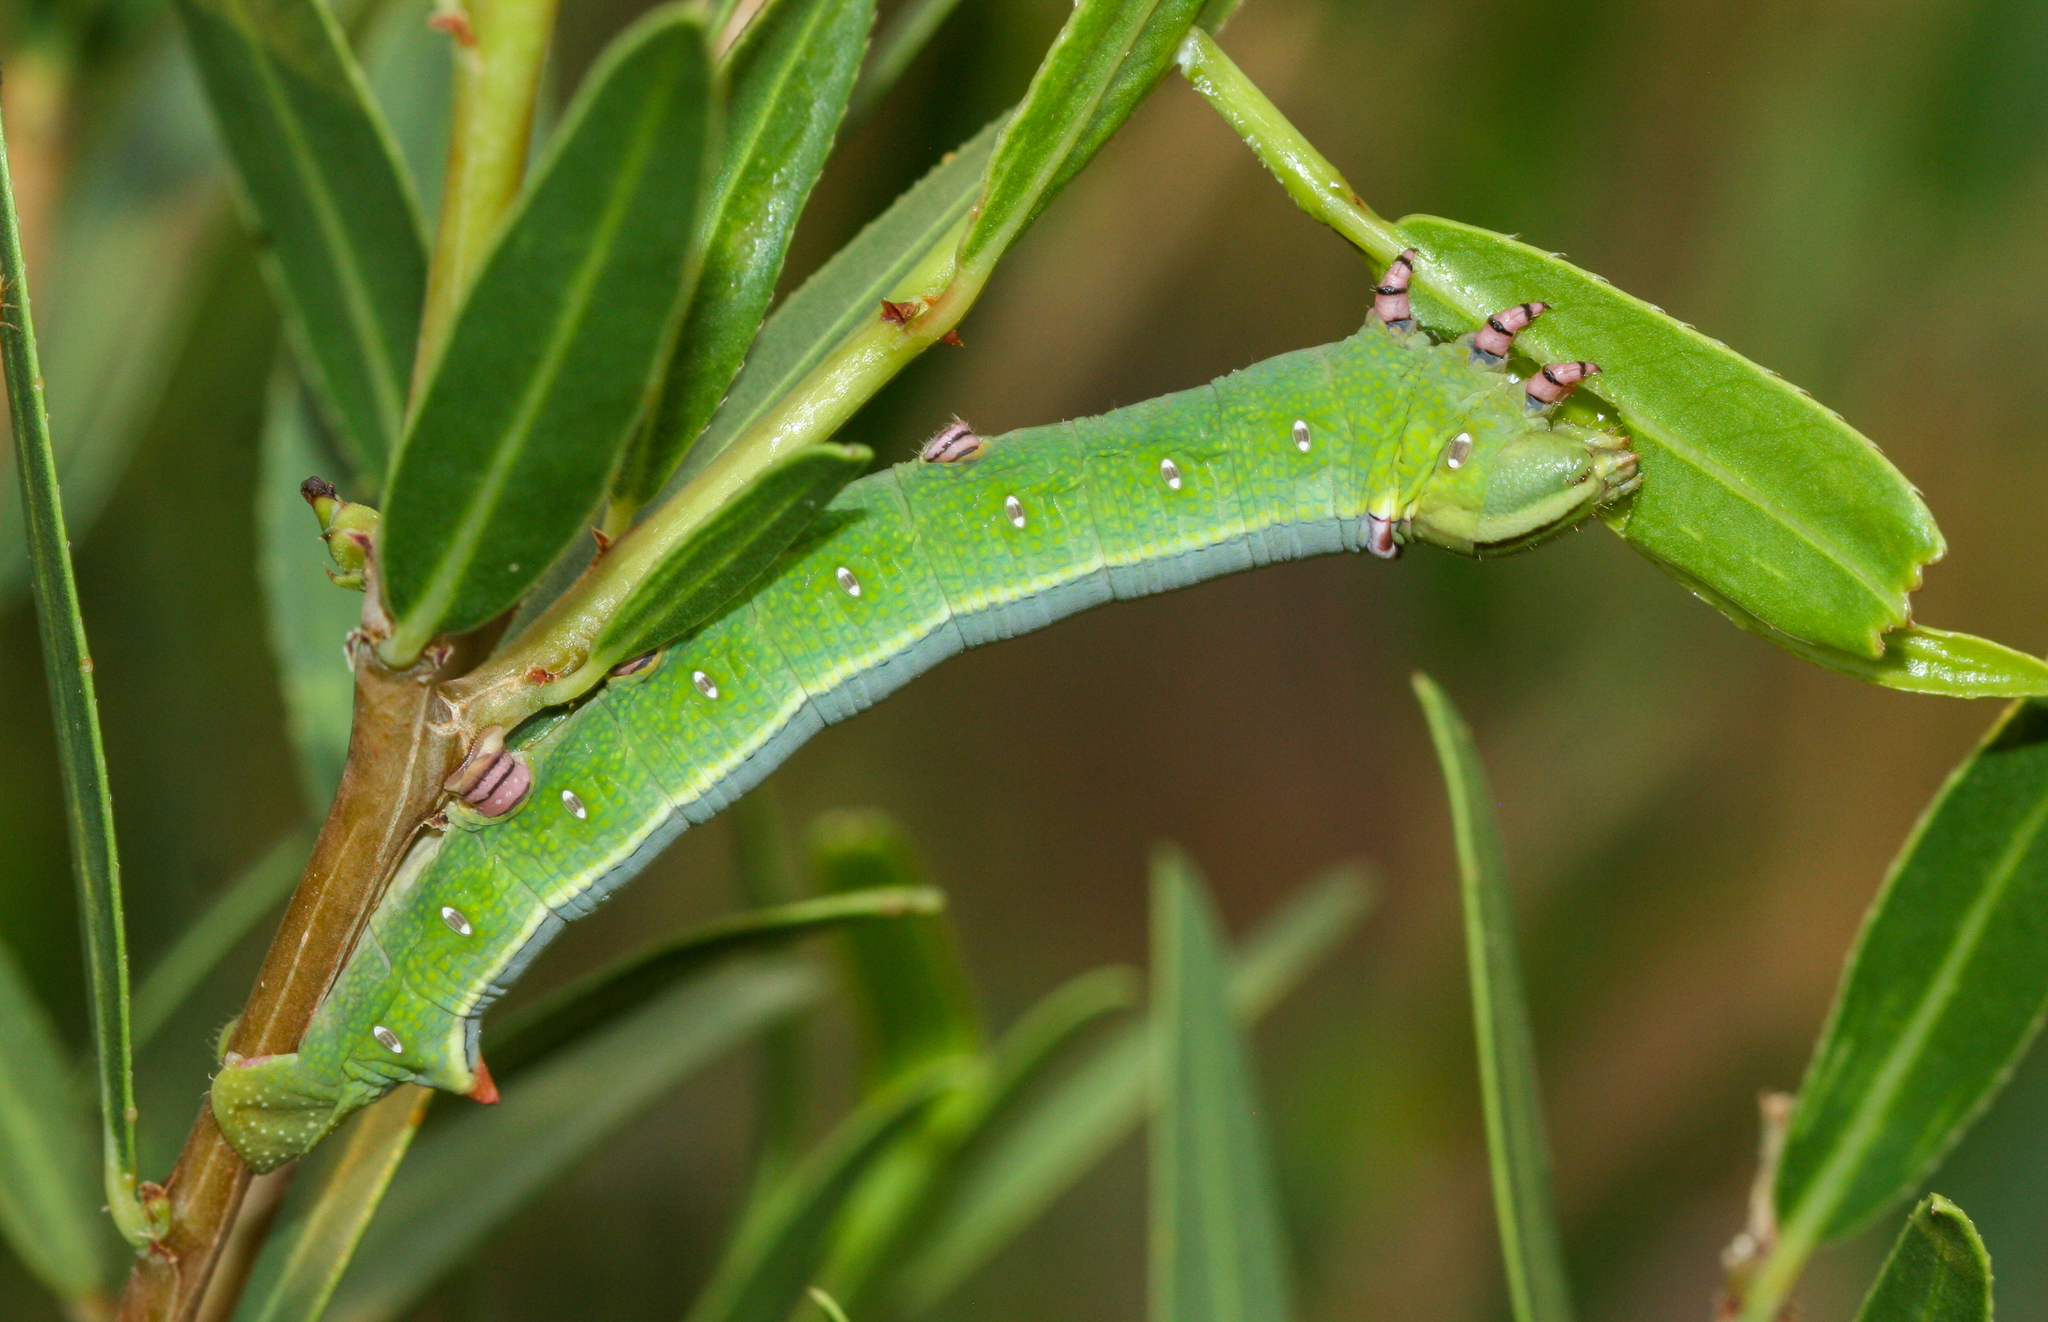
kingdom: Animalia
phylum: Arthropoda
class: Insecta
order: Lepidoptera
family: Sphingidae
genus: Erinnyis
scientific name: Erinnyis ello
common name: Ello sphinx
